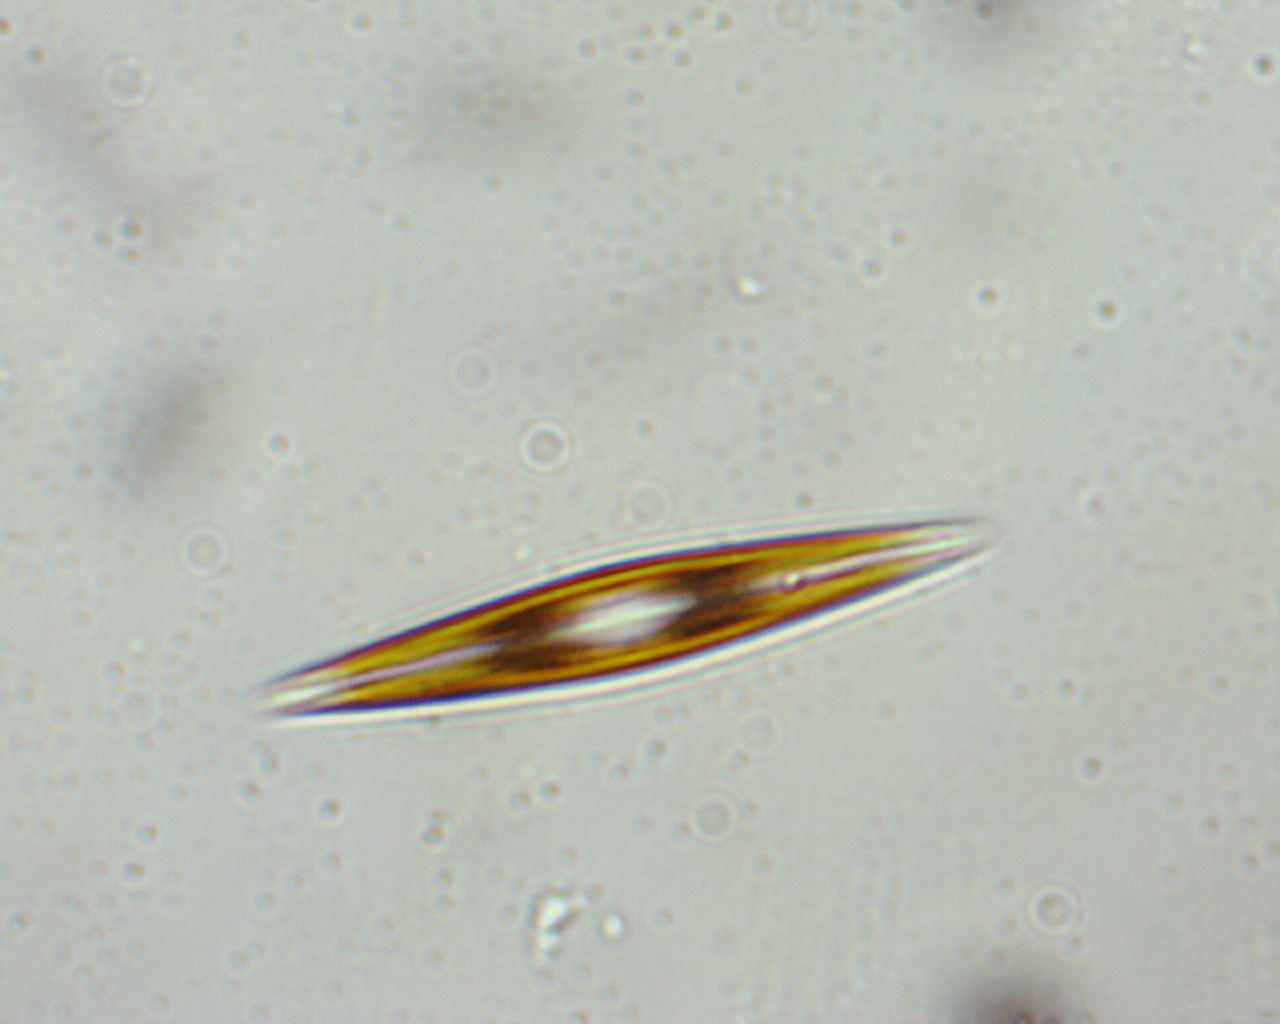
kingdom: Chromista
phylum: Ochrophyta
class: Bacillariophyceae
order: Naviculales
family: Naviculaceae
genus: Navicula
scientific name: Navicula
